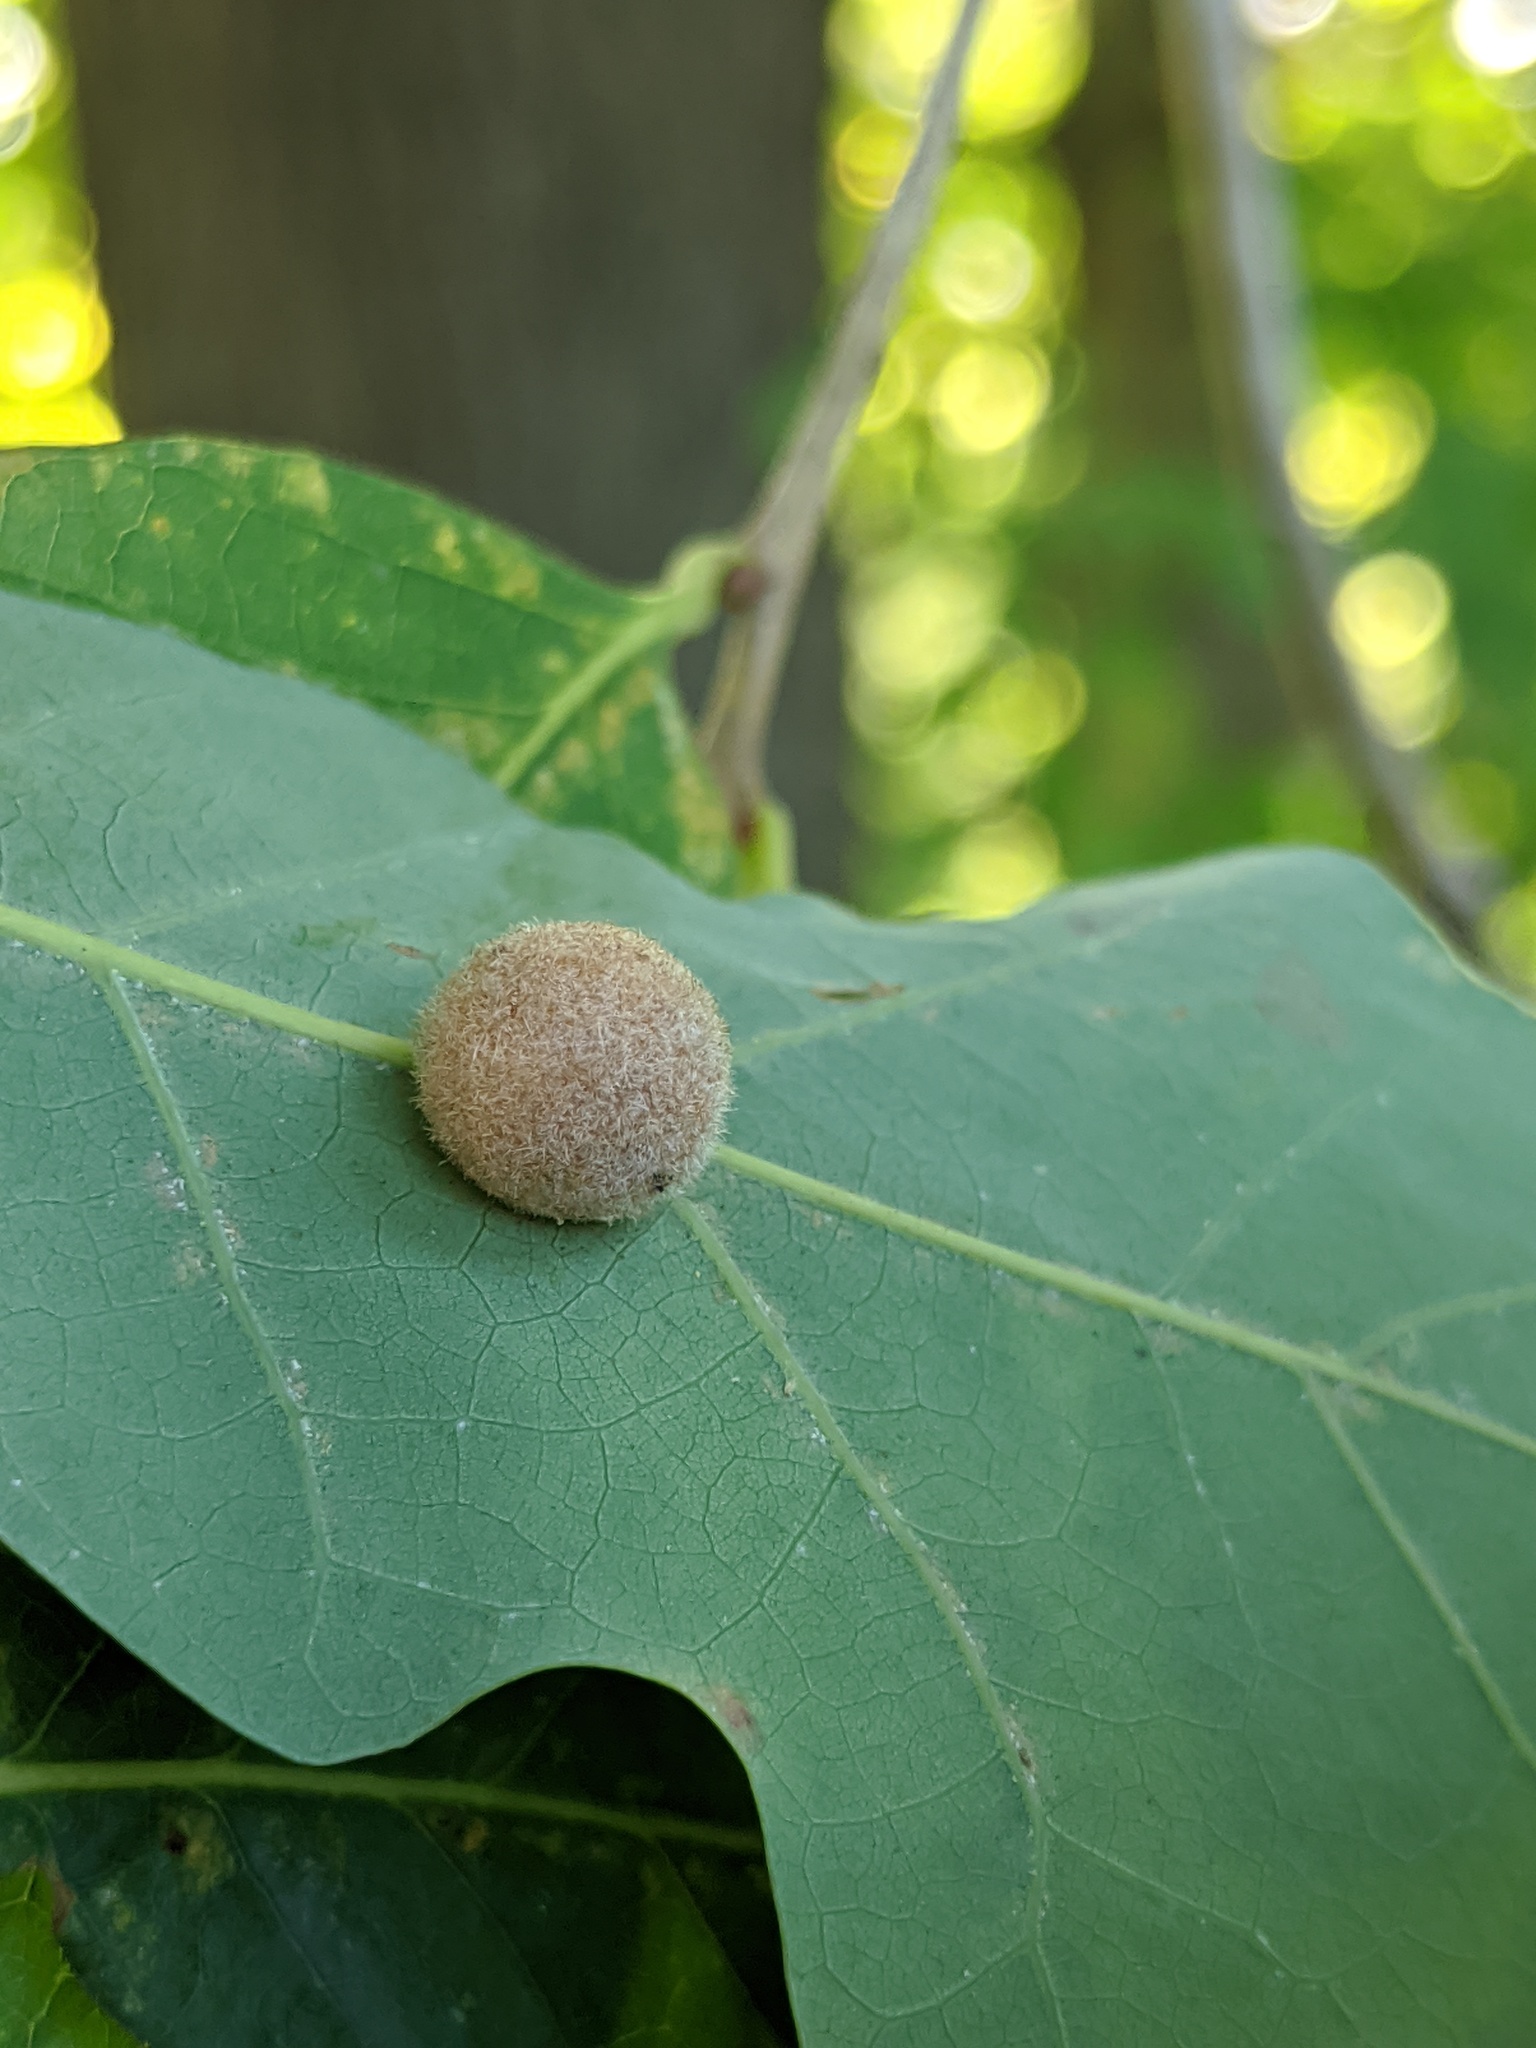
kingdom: Animalia
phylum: Arthropoda
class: Insecta
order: Hymenoptera
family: Cynipidae
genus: Philonix
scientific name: Philonix fulvicollis
